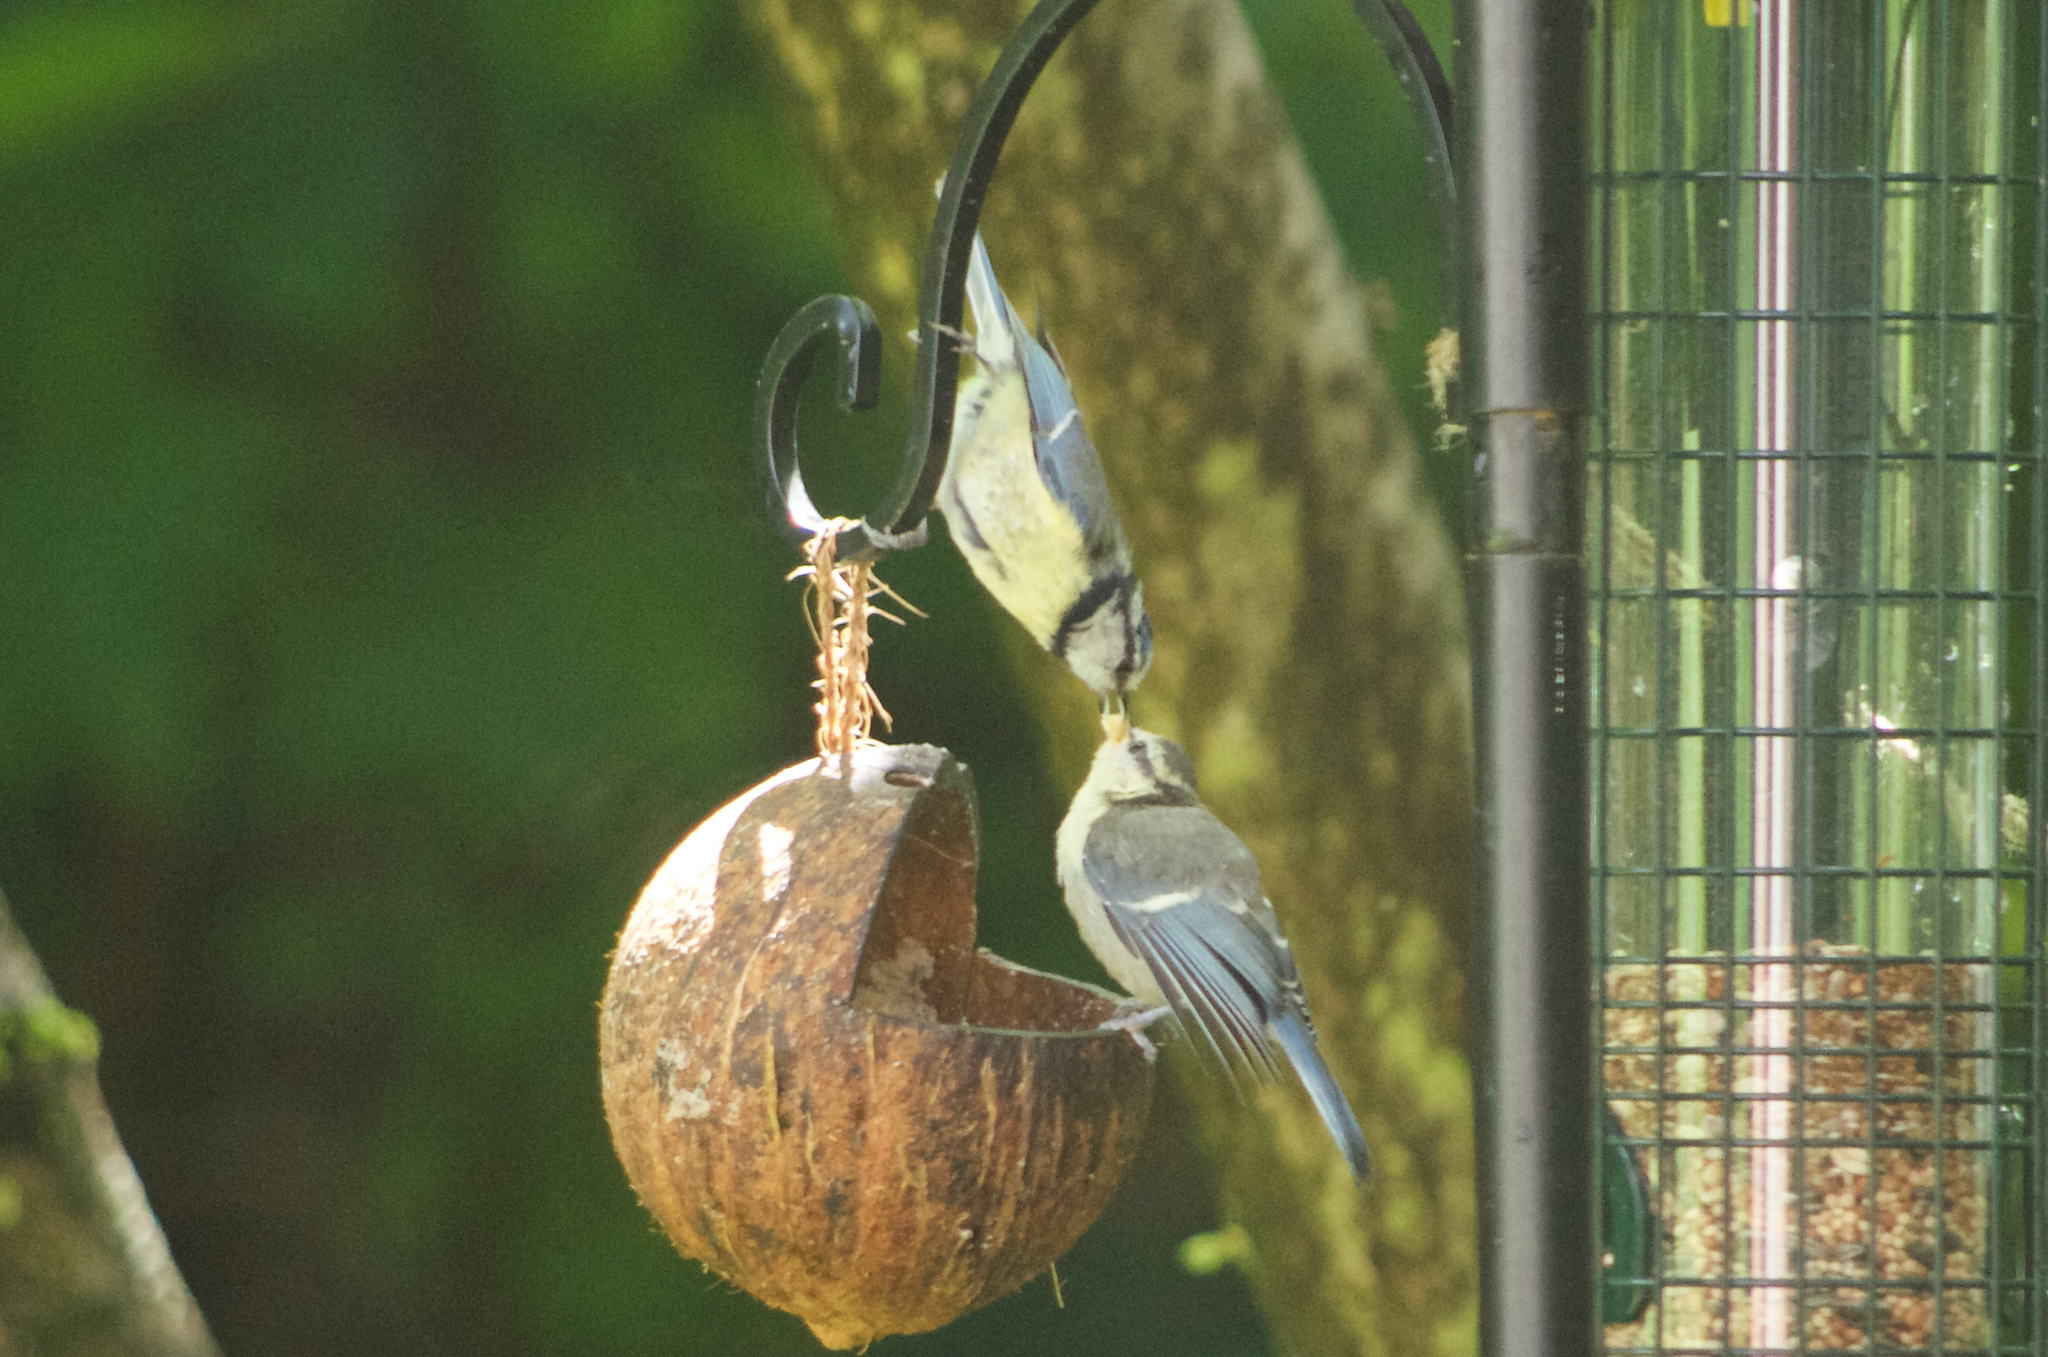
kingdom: Animalia
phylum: Chordata
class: Aves
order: Passeriformes
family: Paridae
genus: Cyanistes
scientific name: Cyanistes caeruleus
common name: Eurasian blue tit
